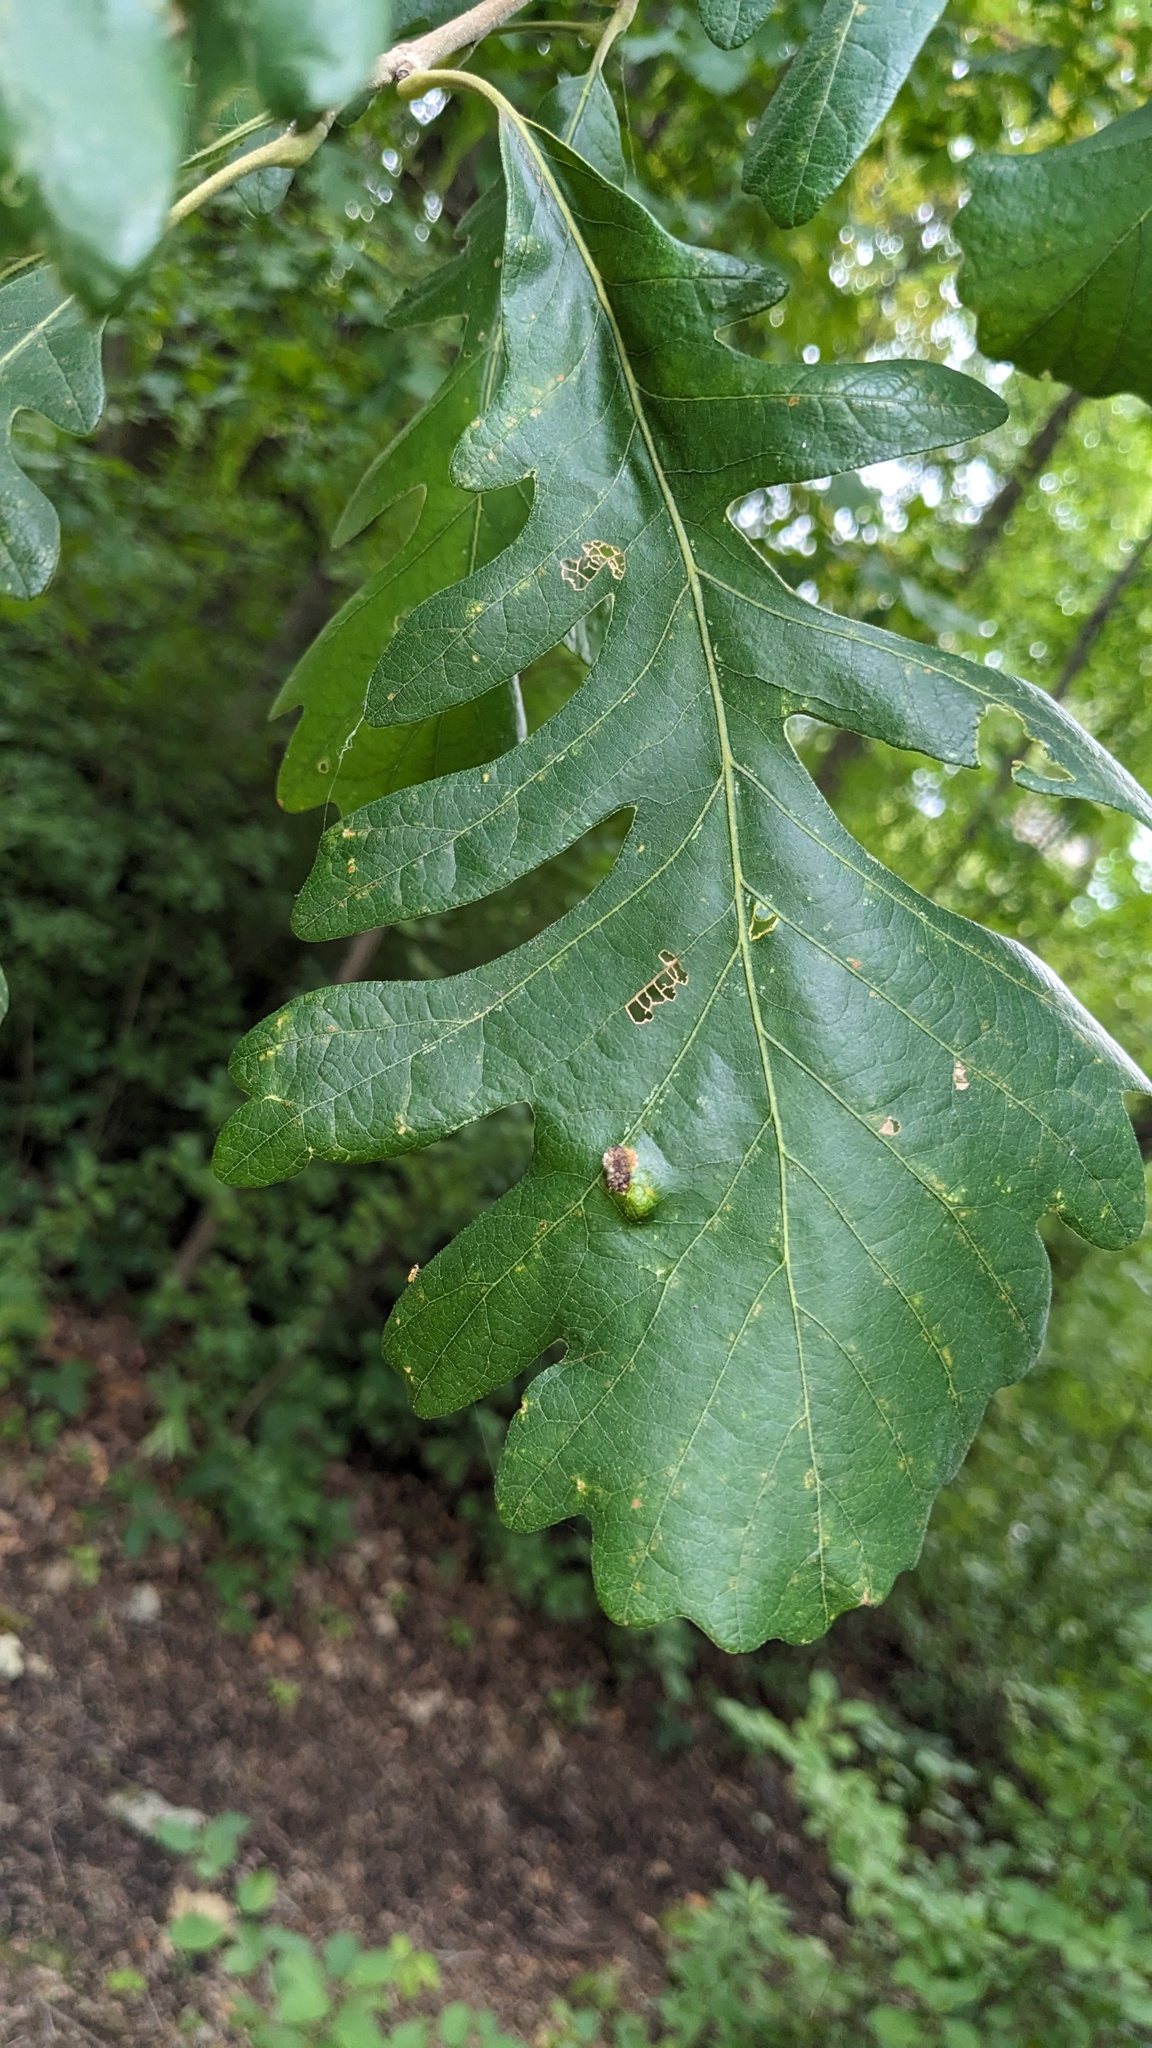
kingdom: Animalia
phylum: Arthropoda
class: Arachnida
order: Trombidiformes
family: Eriophyidae
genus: Aceria
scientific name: Aceria quercina
